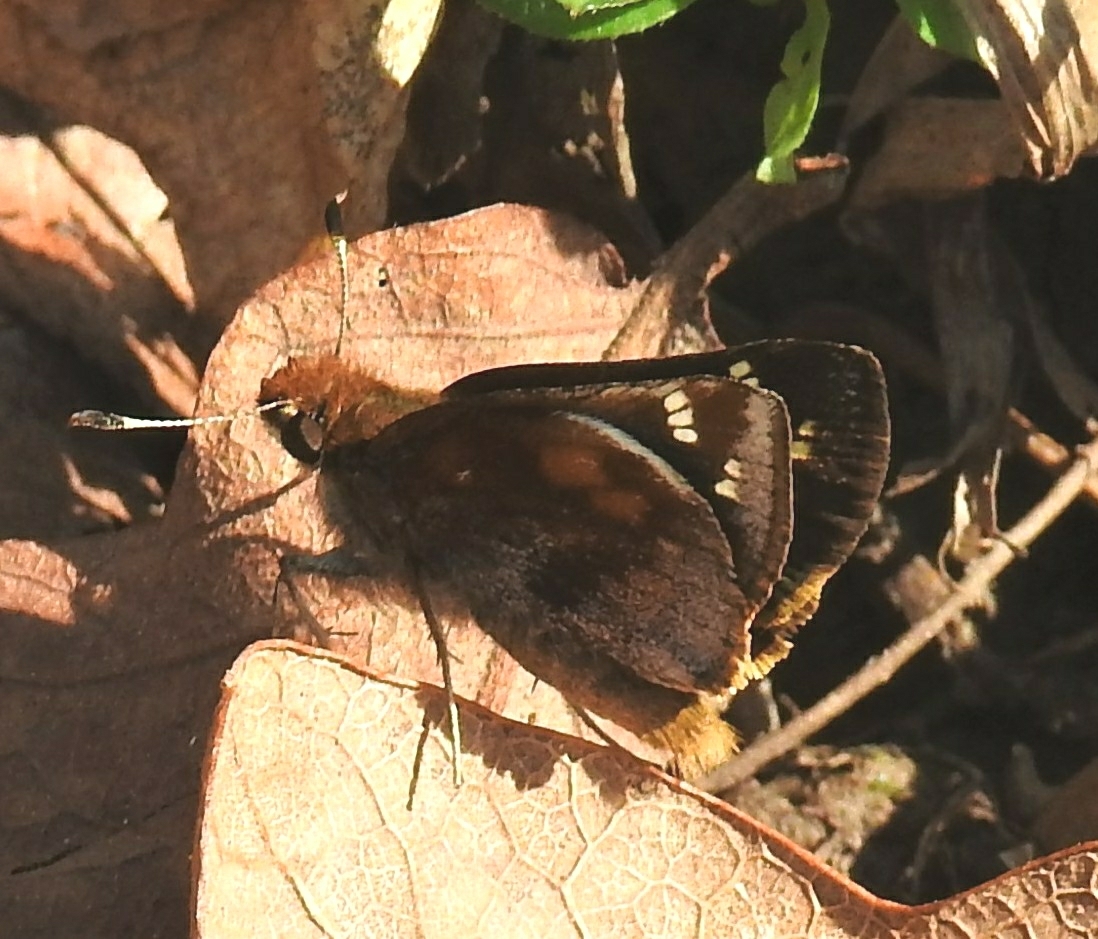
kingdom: Animalia
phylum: Arthropoda
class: Insecta
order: Lepidoptera
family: Hesperiidae
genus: Lon
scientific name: Lon zabulon
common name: Zabulon skipper
